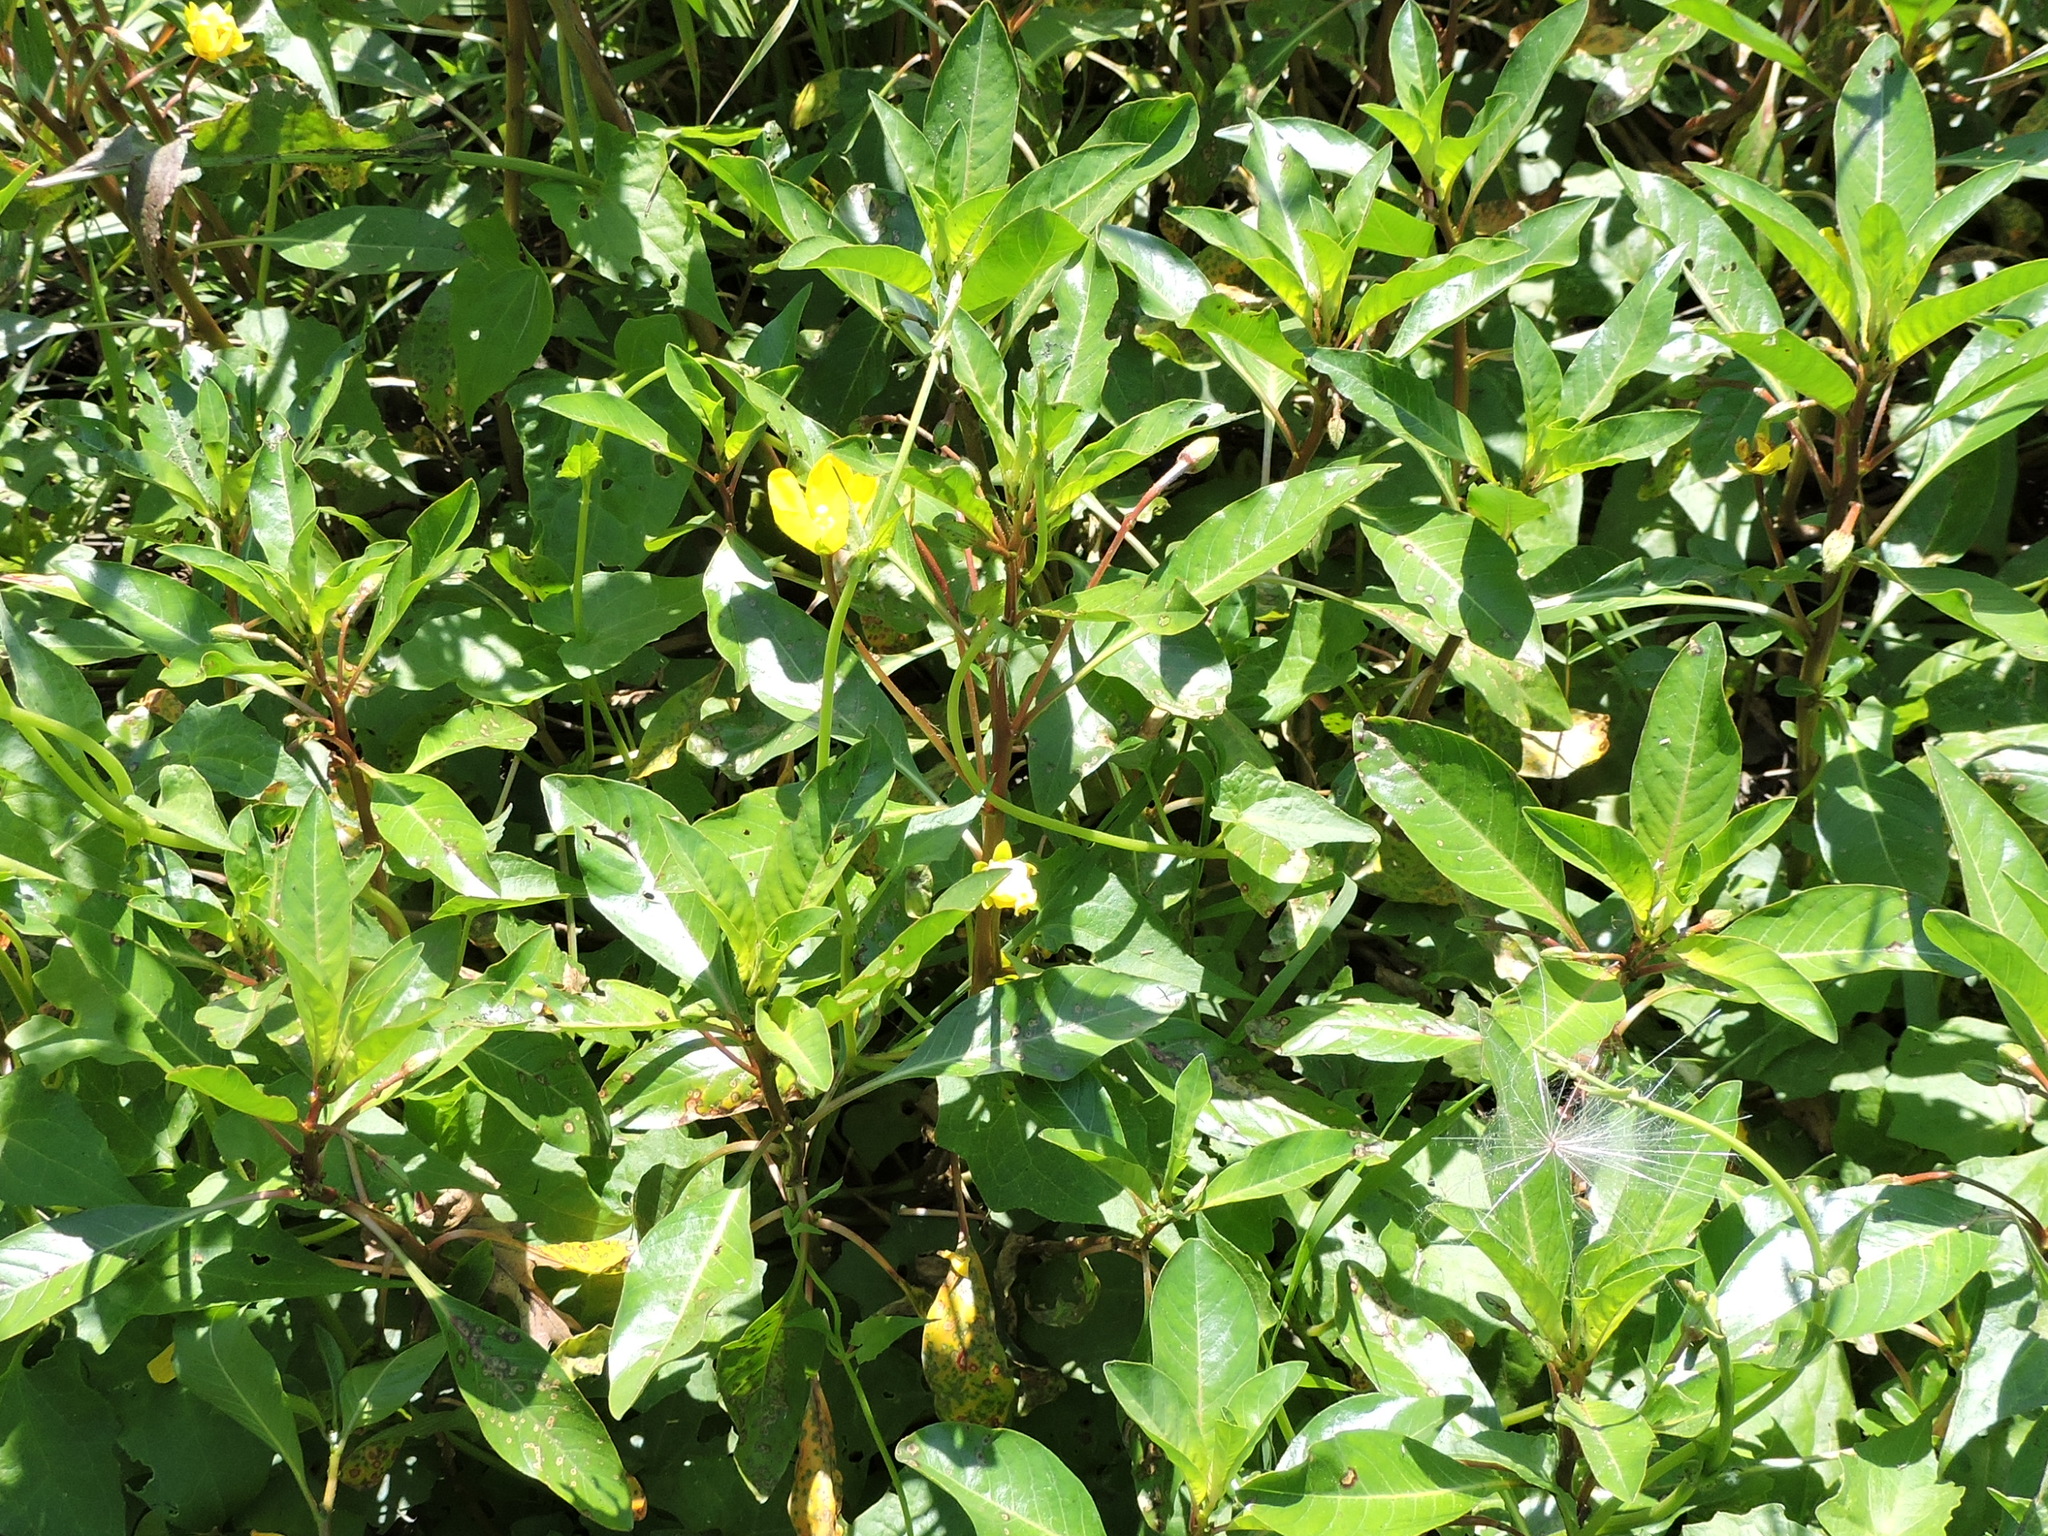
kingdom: Plantae
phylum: Tracheophyta
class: Magnoliopsida
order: Myrtales
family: Onagraceae
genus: Ludwigia
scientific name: Ludwigia peploides
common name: Floating primrose-willow
